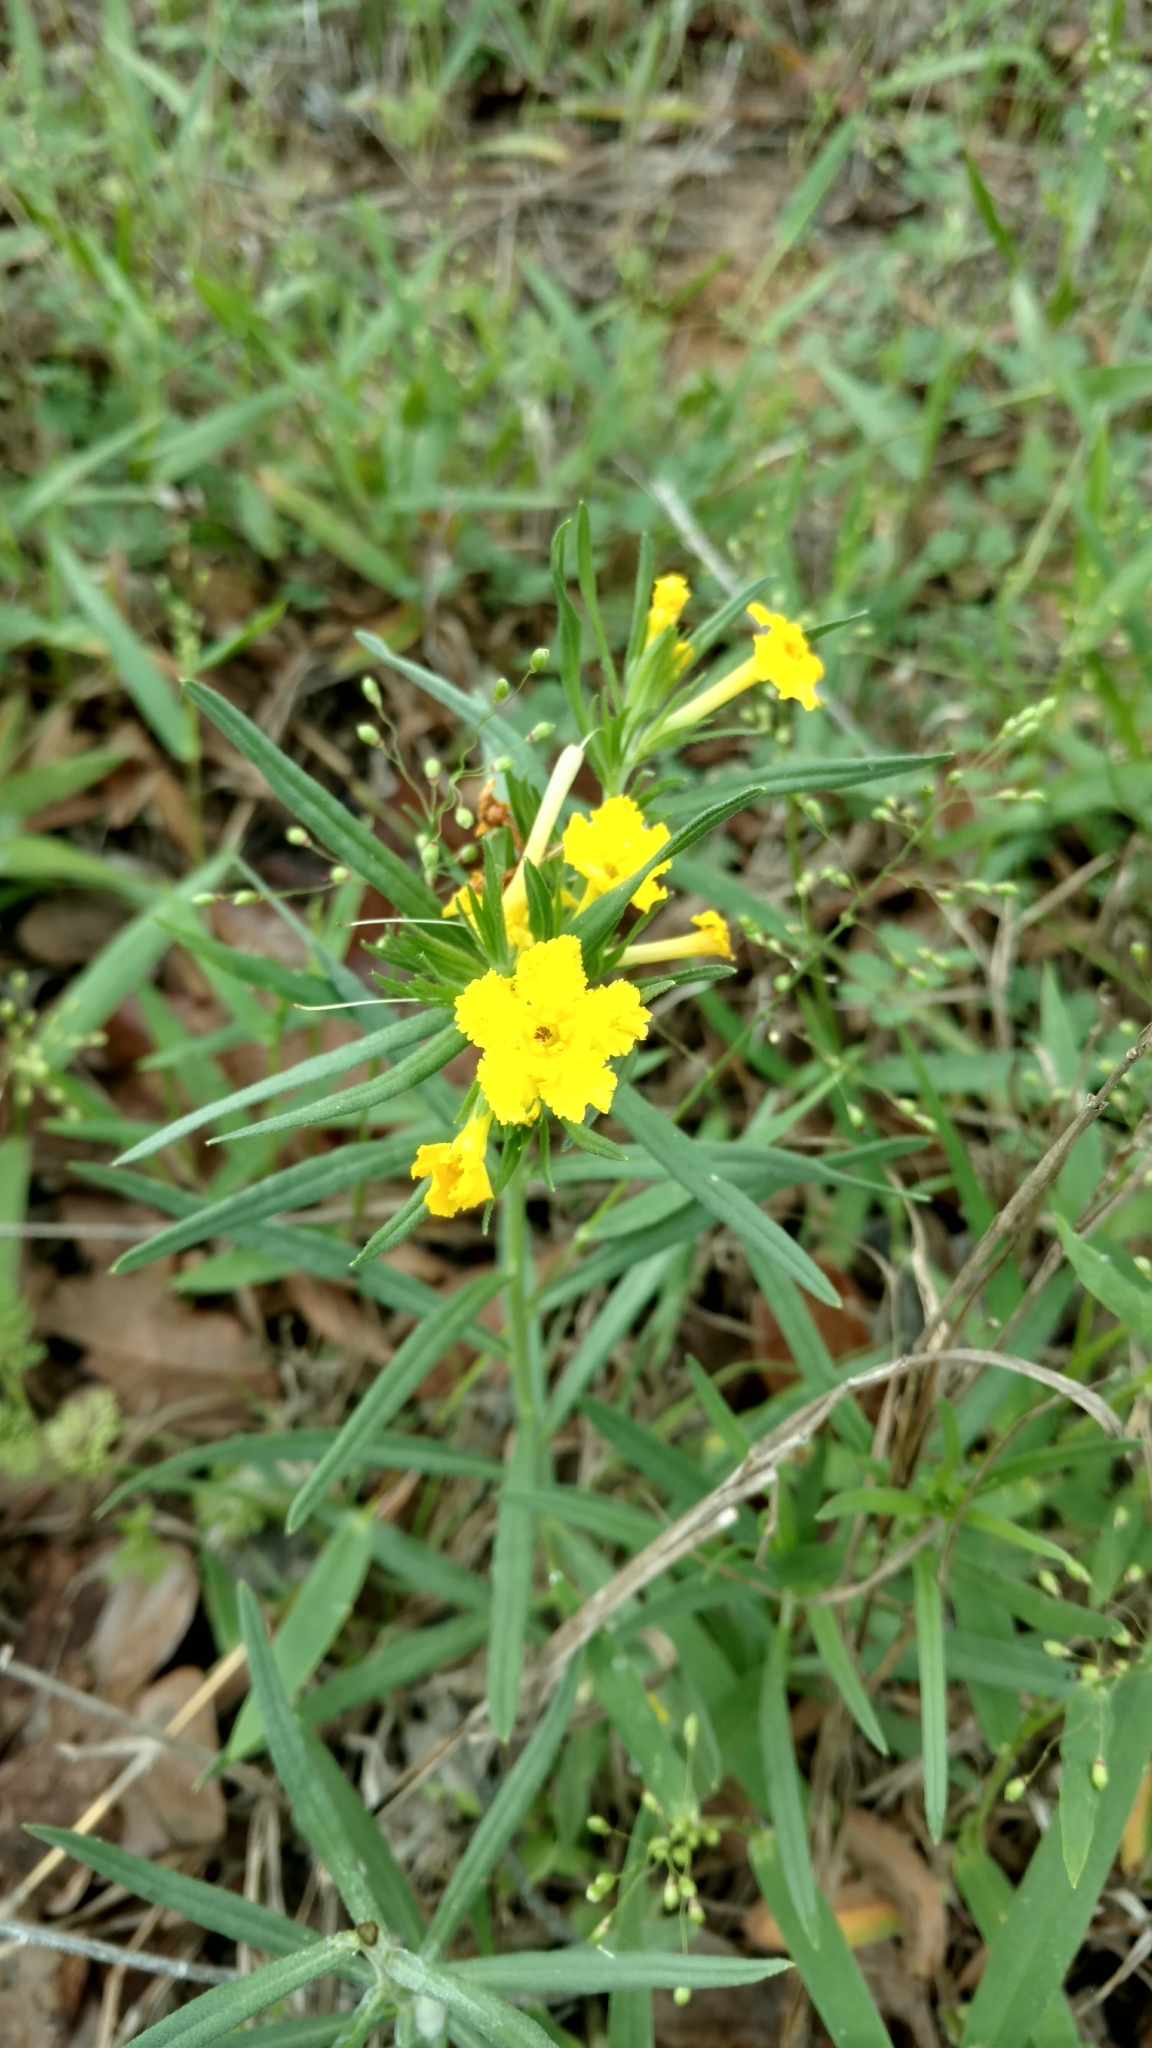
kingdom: Plantae
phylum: Tracheophyta
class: Magnoliopsida
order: Boraginales
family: Boraginaceae
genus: Lithospermum
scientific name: Lithospermum incisum
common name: Fringed gromwell
